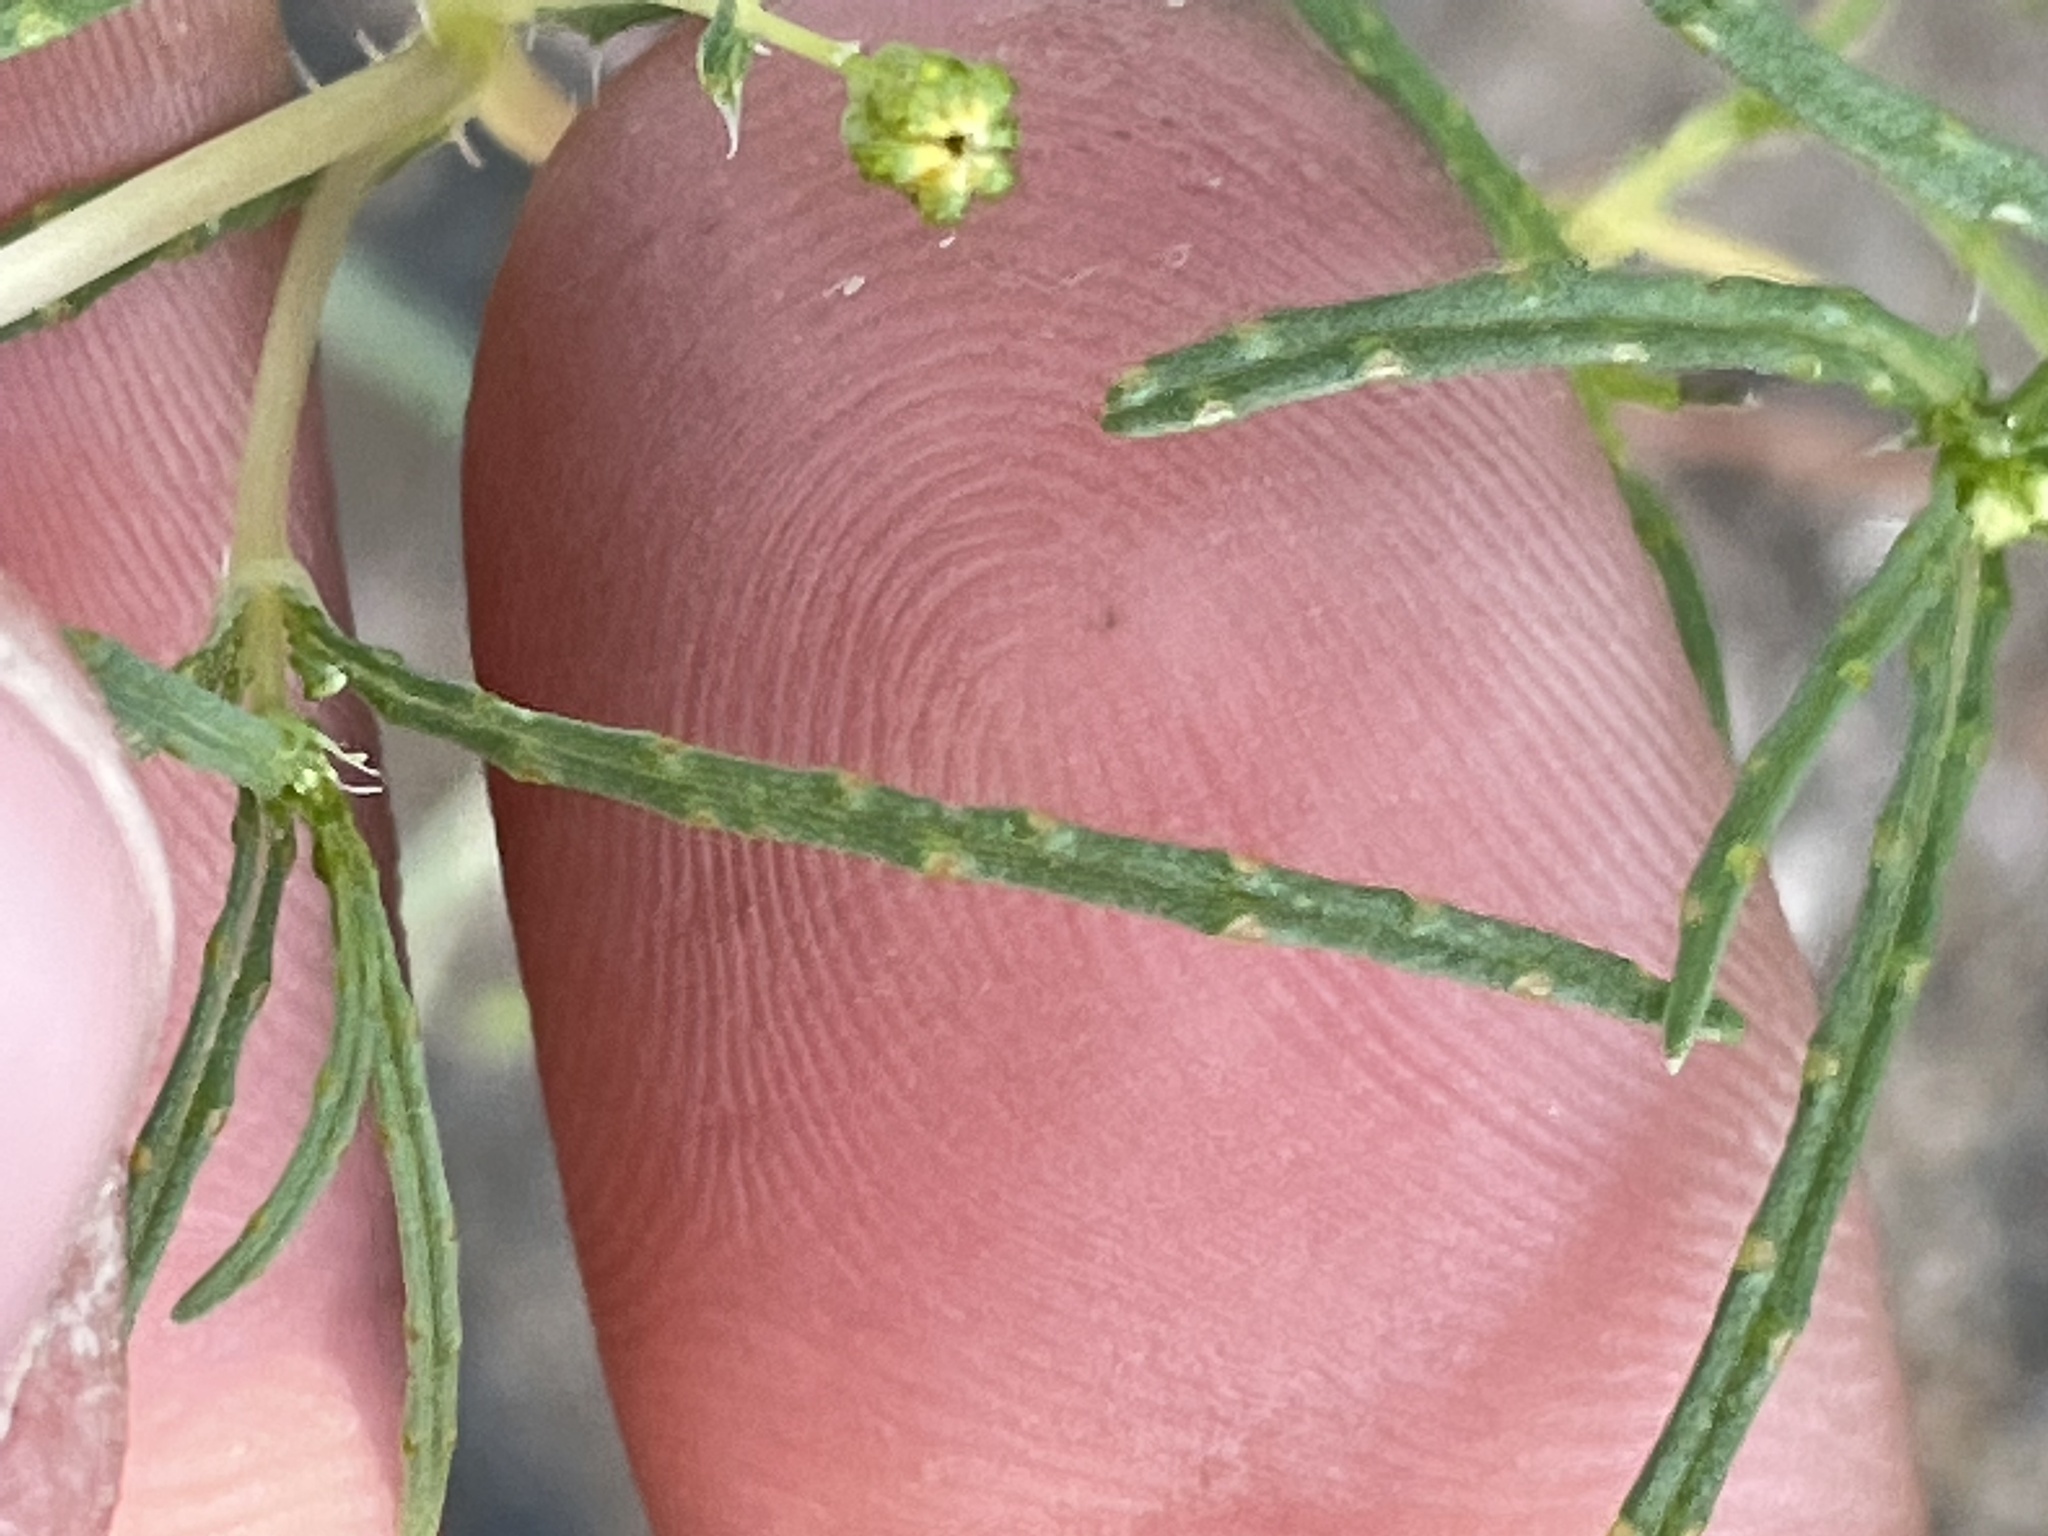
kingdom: Plantae
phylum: Tracheophyta
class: Magnoliopsida
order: Asterales
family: Asteraceae
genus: Pectis
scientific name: Pectis papposa
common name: Many-bristle chinchweed
